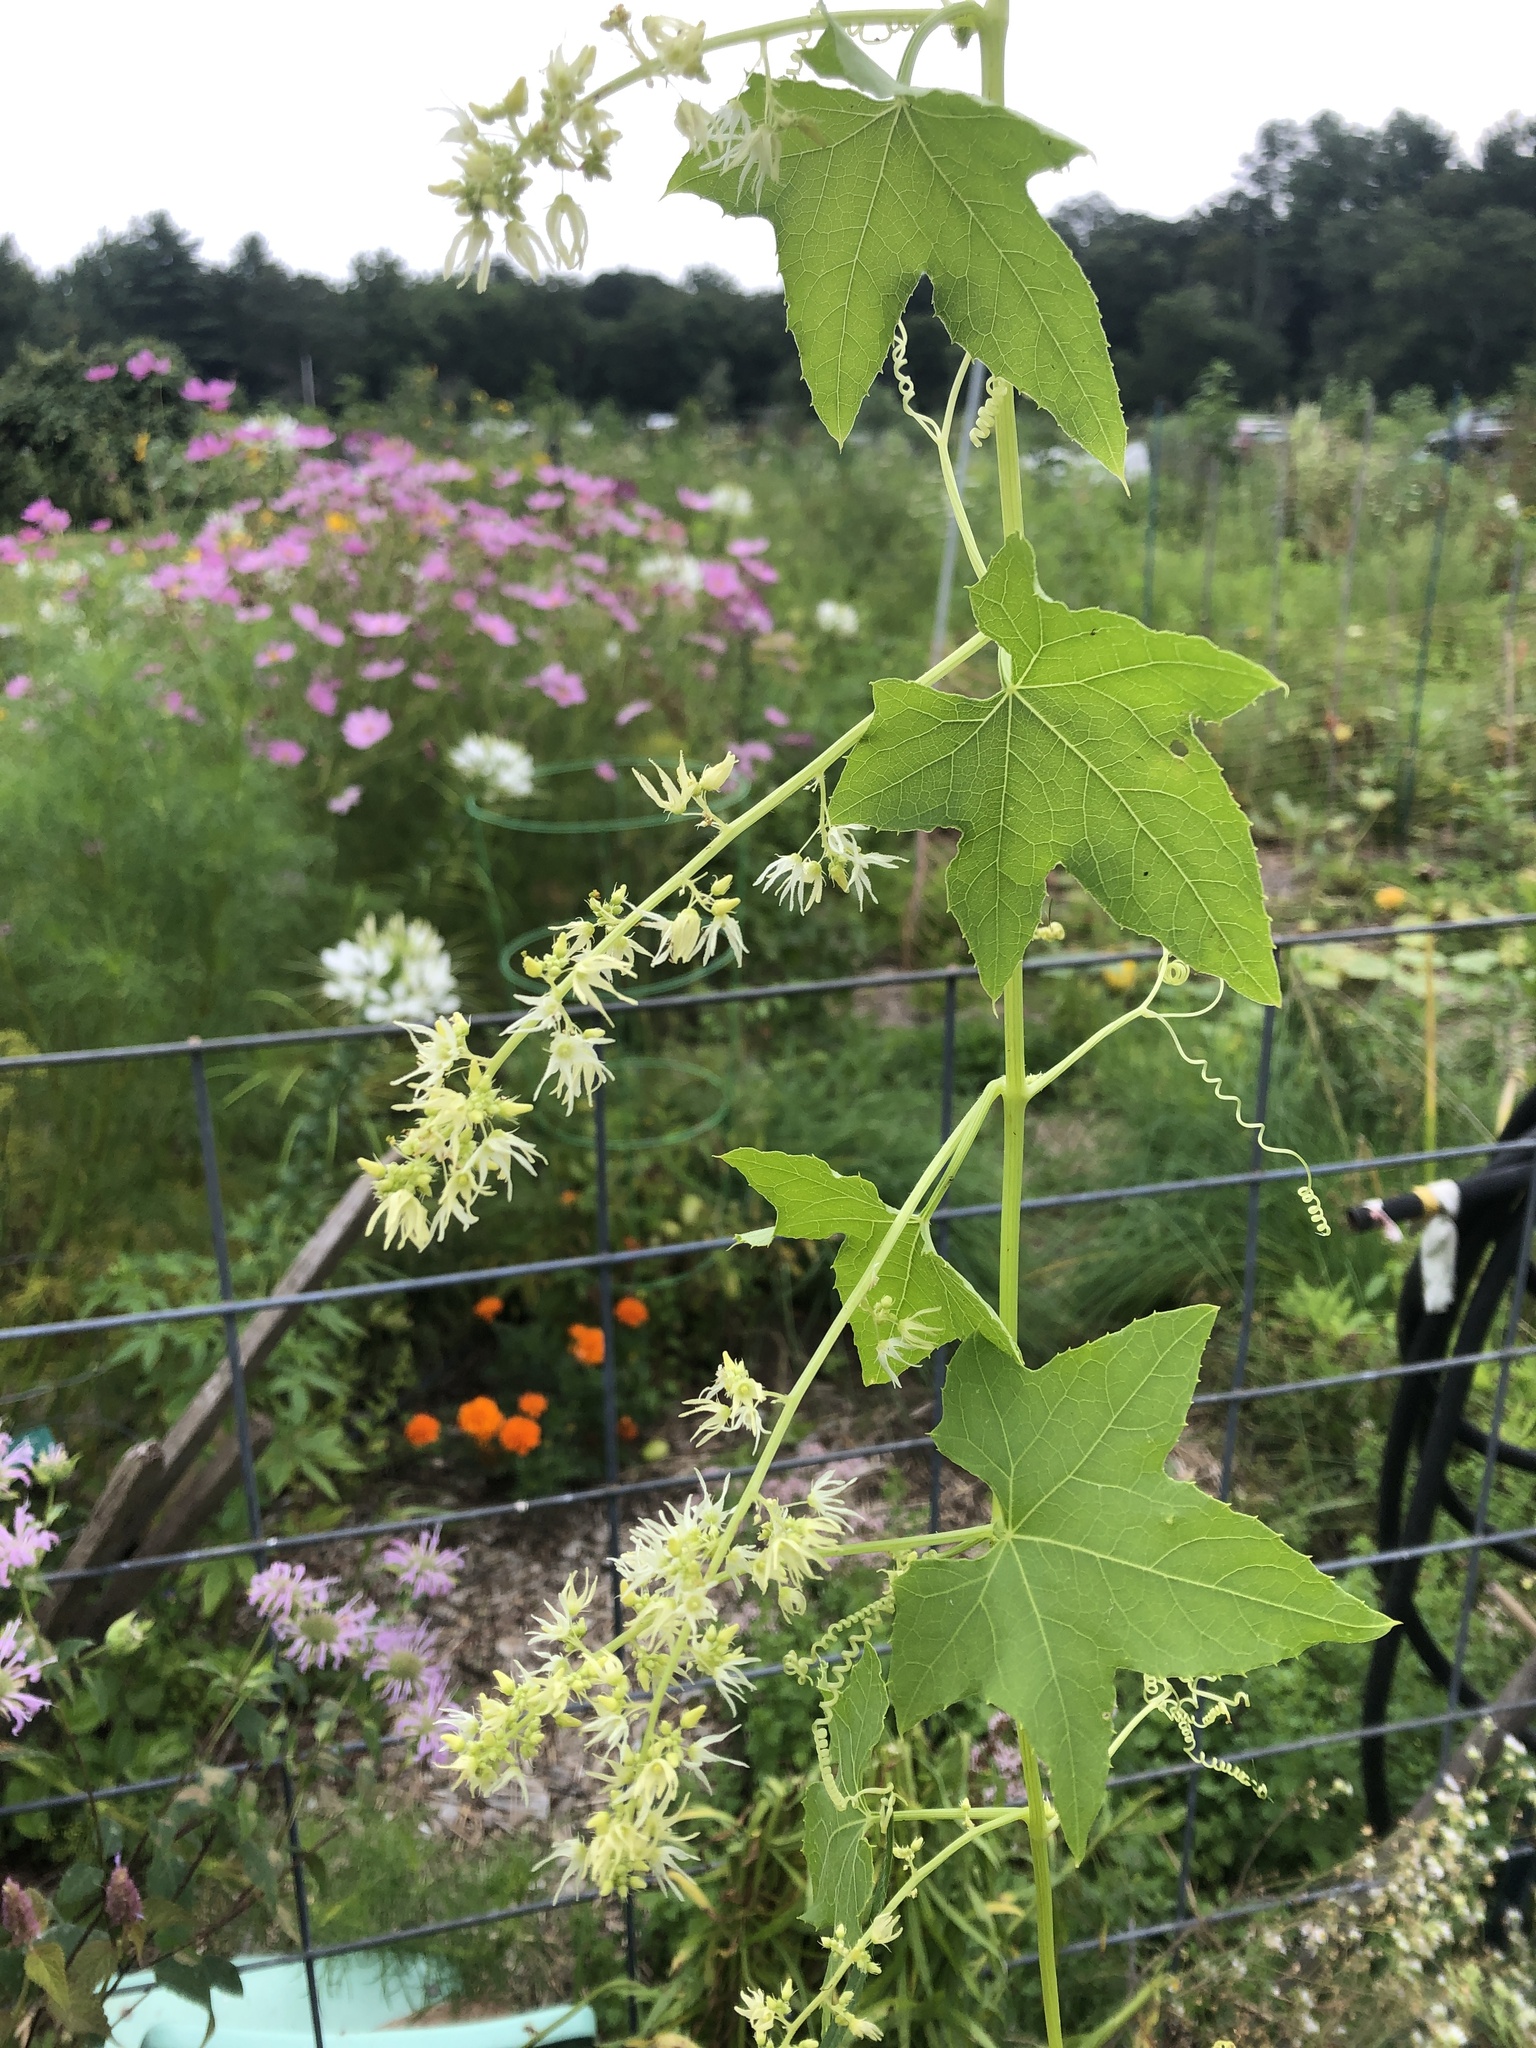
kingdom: Plantae
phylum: Tracheophyta
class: Magnoliopsida
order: Cucurbitales
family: Cucurbitaceae
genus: Echinocystis
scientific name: Echinocystis lobata
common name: Wild cucumber
